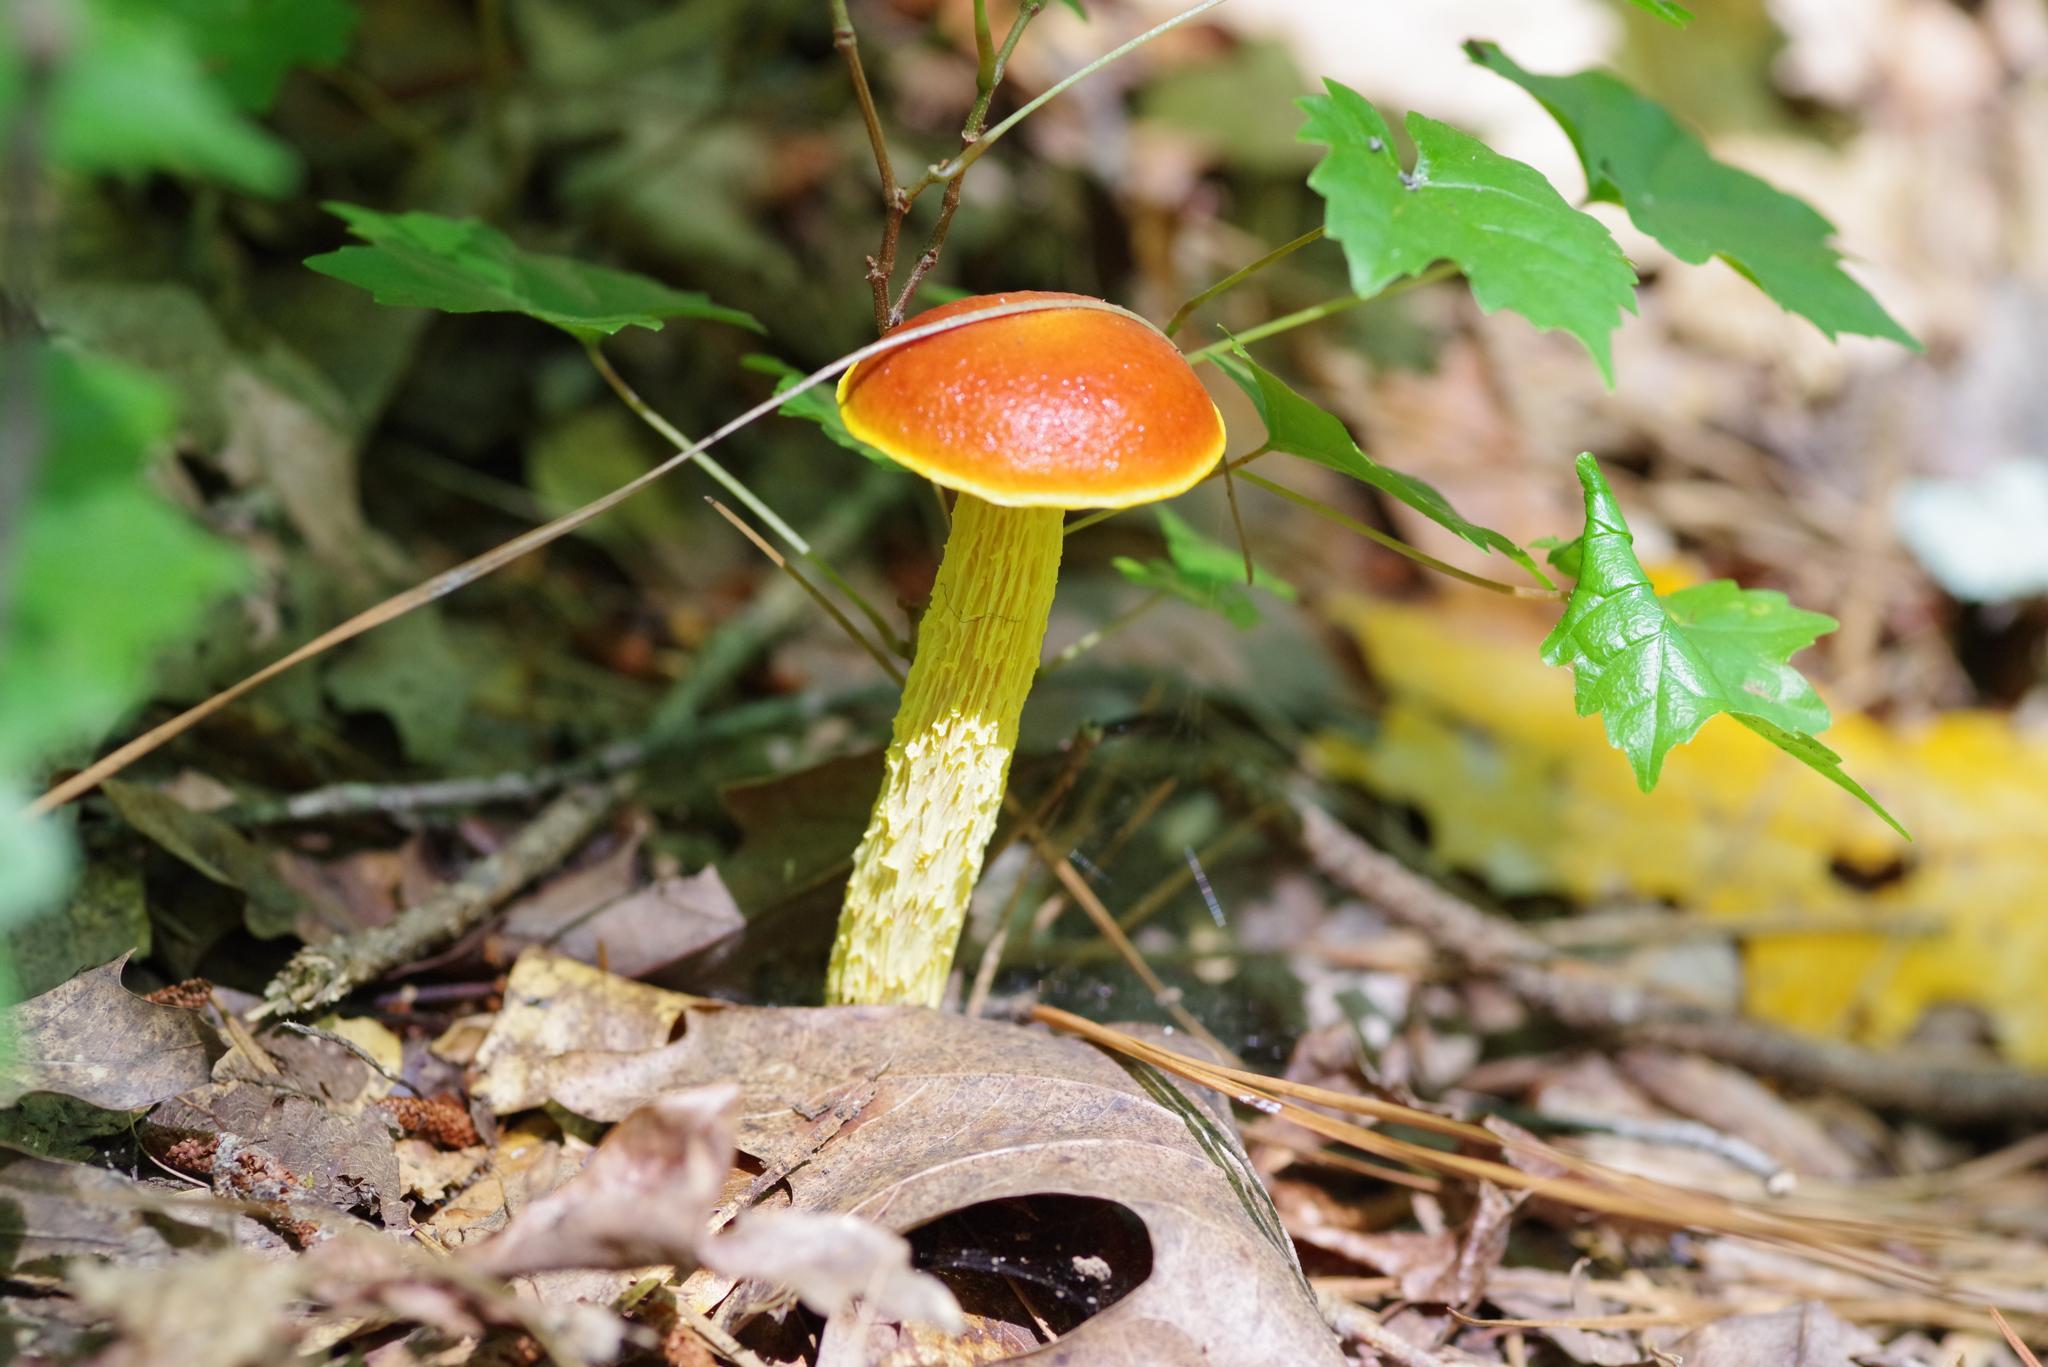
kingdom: Fungi
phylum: Basidiomycota
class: Agaricomycetes
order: Boletales
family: Boletaceae
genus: Aureoboletus
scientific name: Aureoboletus betula
